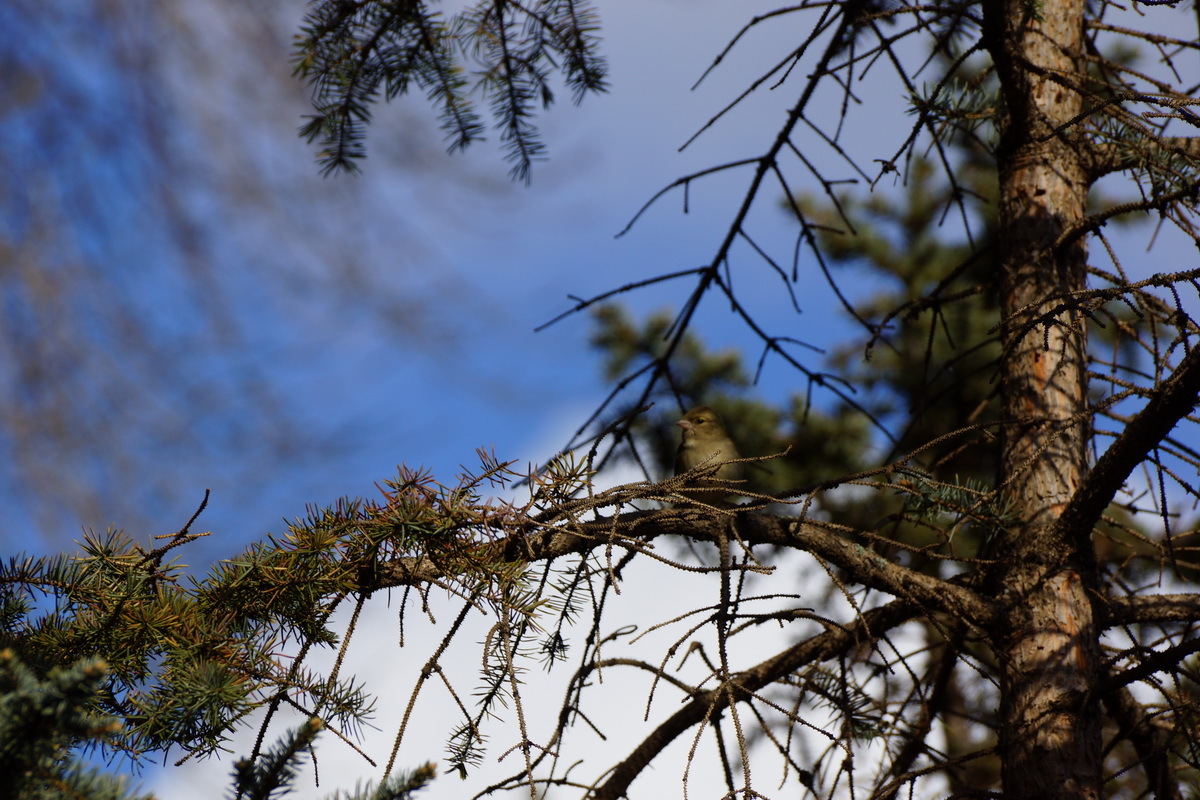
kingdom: Animalia
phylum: Chordata
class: Aves
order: Passeriformes
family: Fringillidae
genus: Fringilla
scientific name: Fringilla coelebs
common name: Common chaffinch
